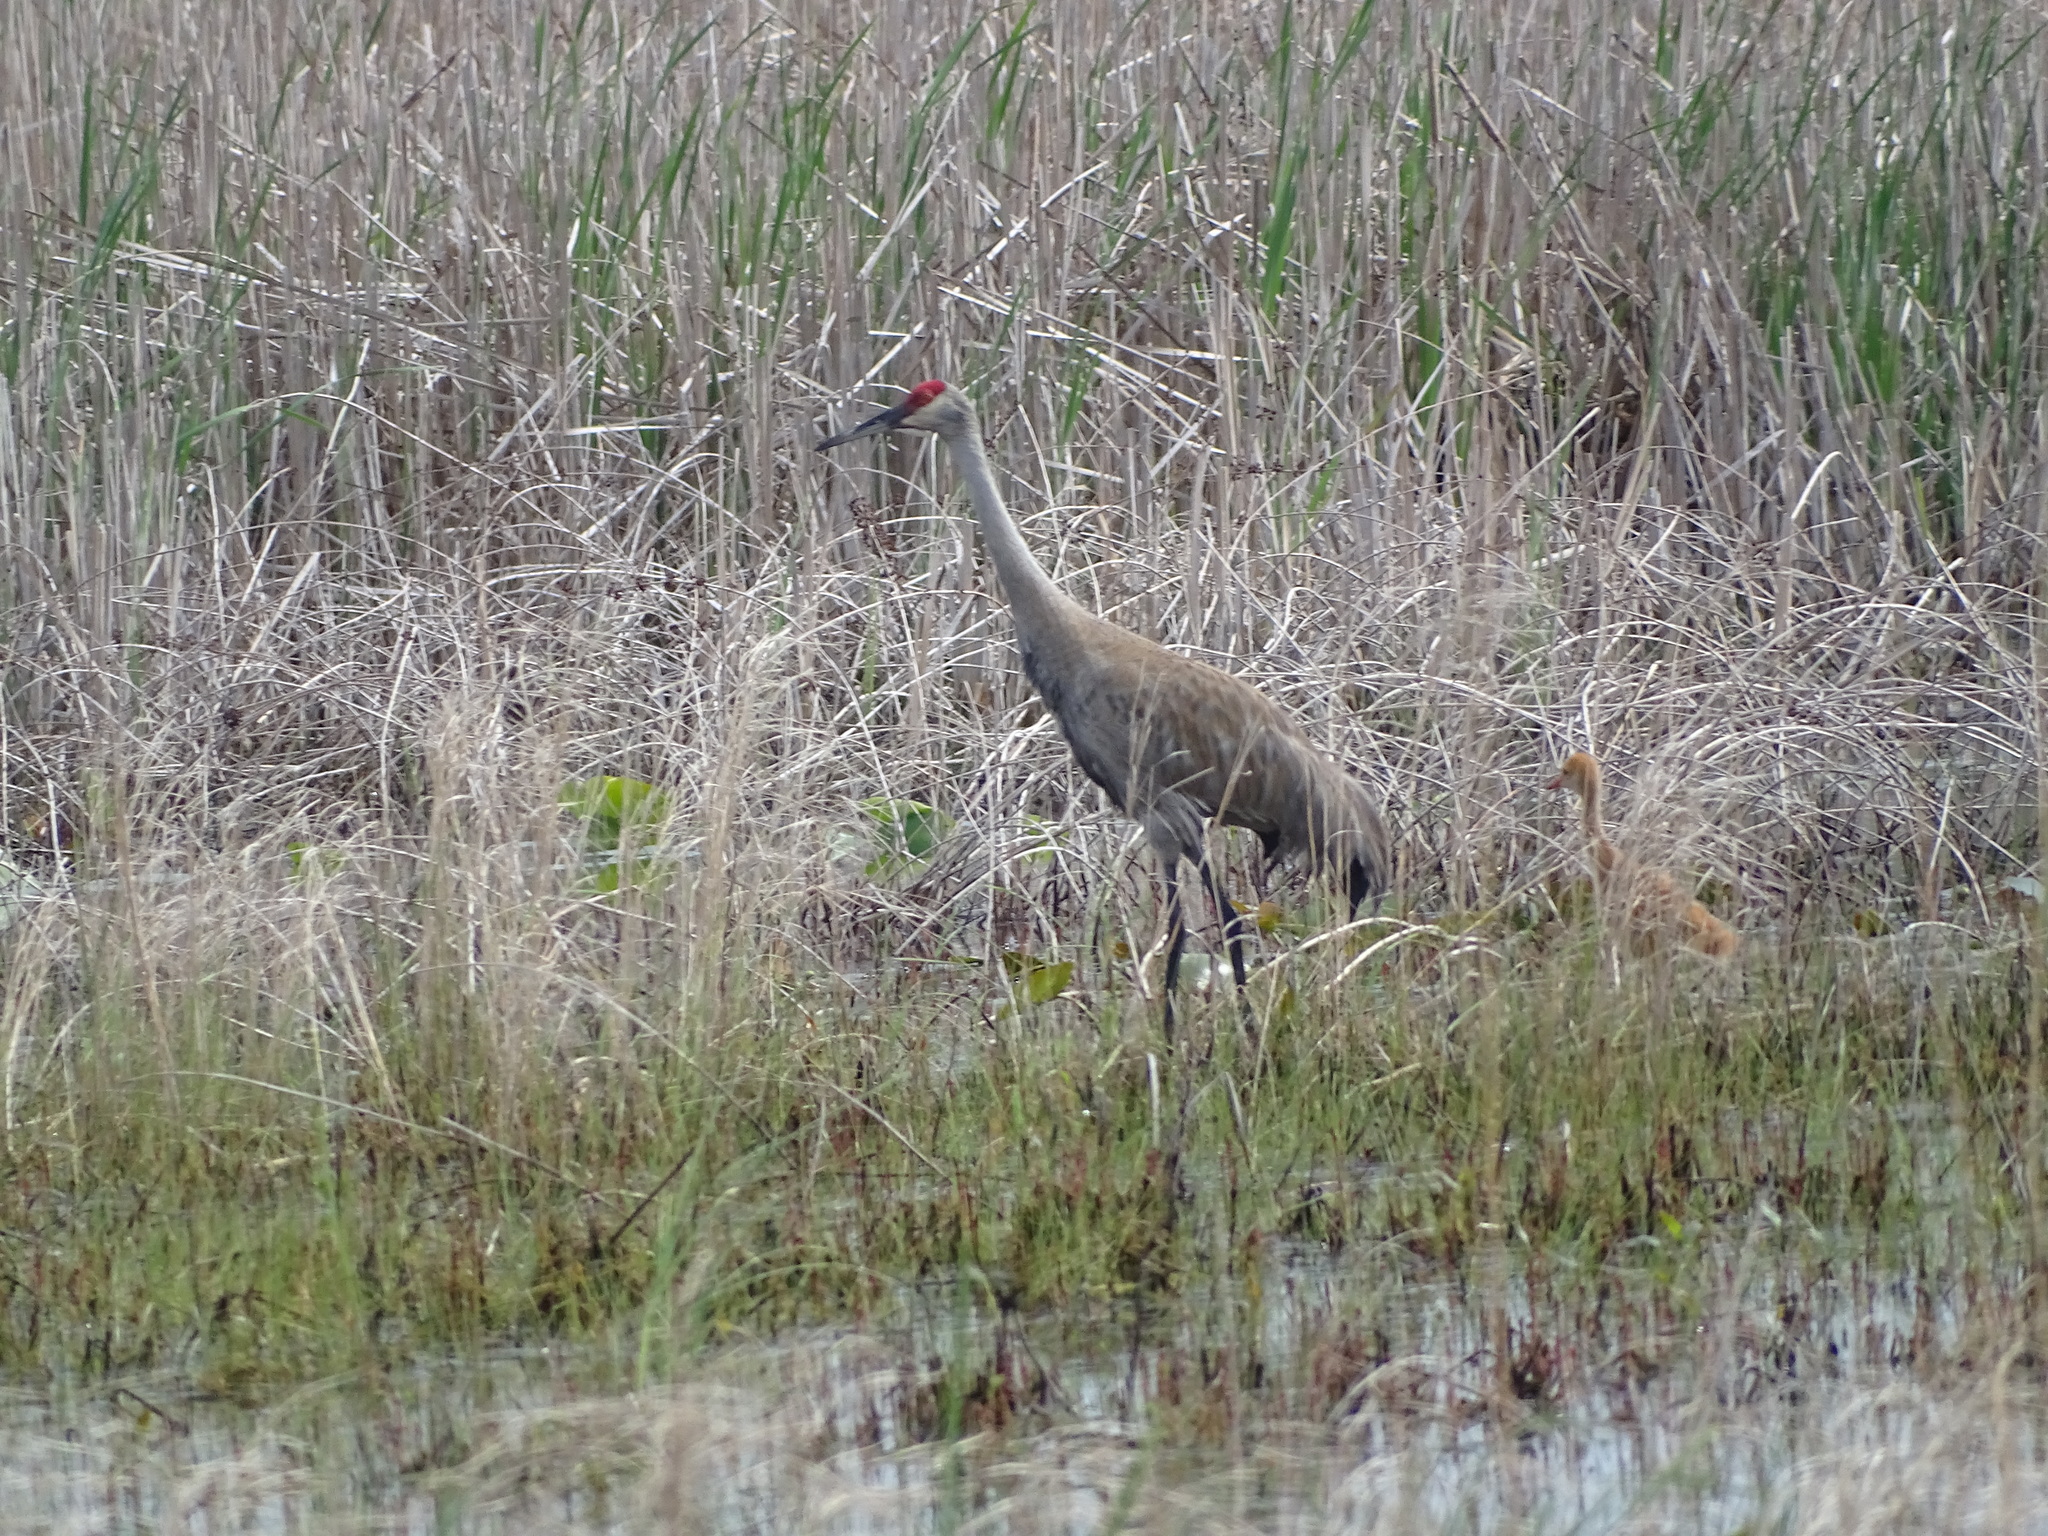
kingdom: Animalia
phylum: Chordata
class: Aves
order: Gruiformes
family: Gruidae
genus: Grus
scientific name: Grus canadensis
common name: Sandhill crane
